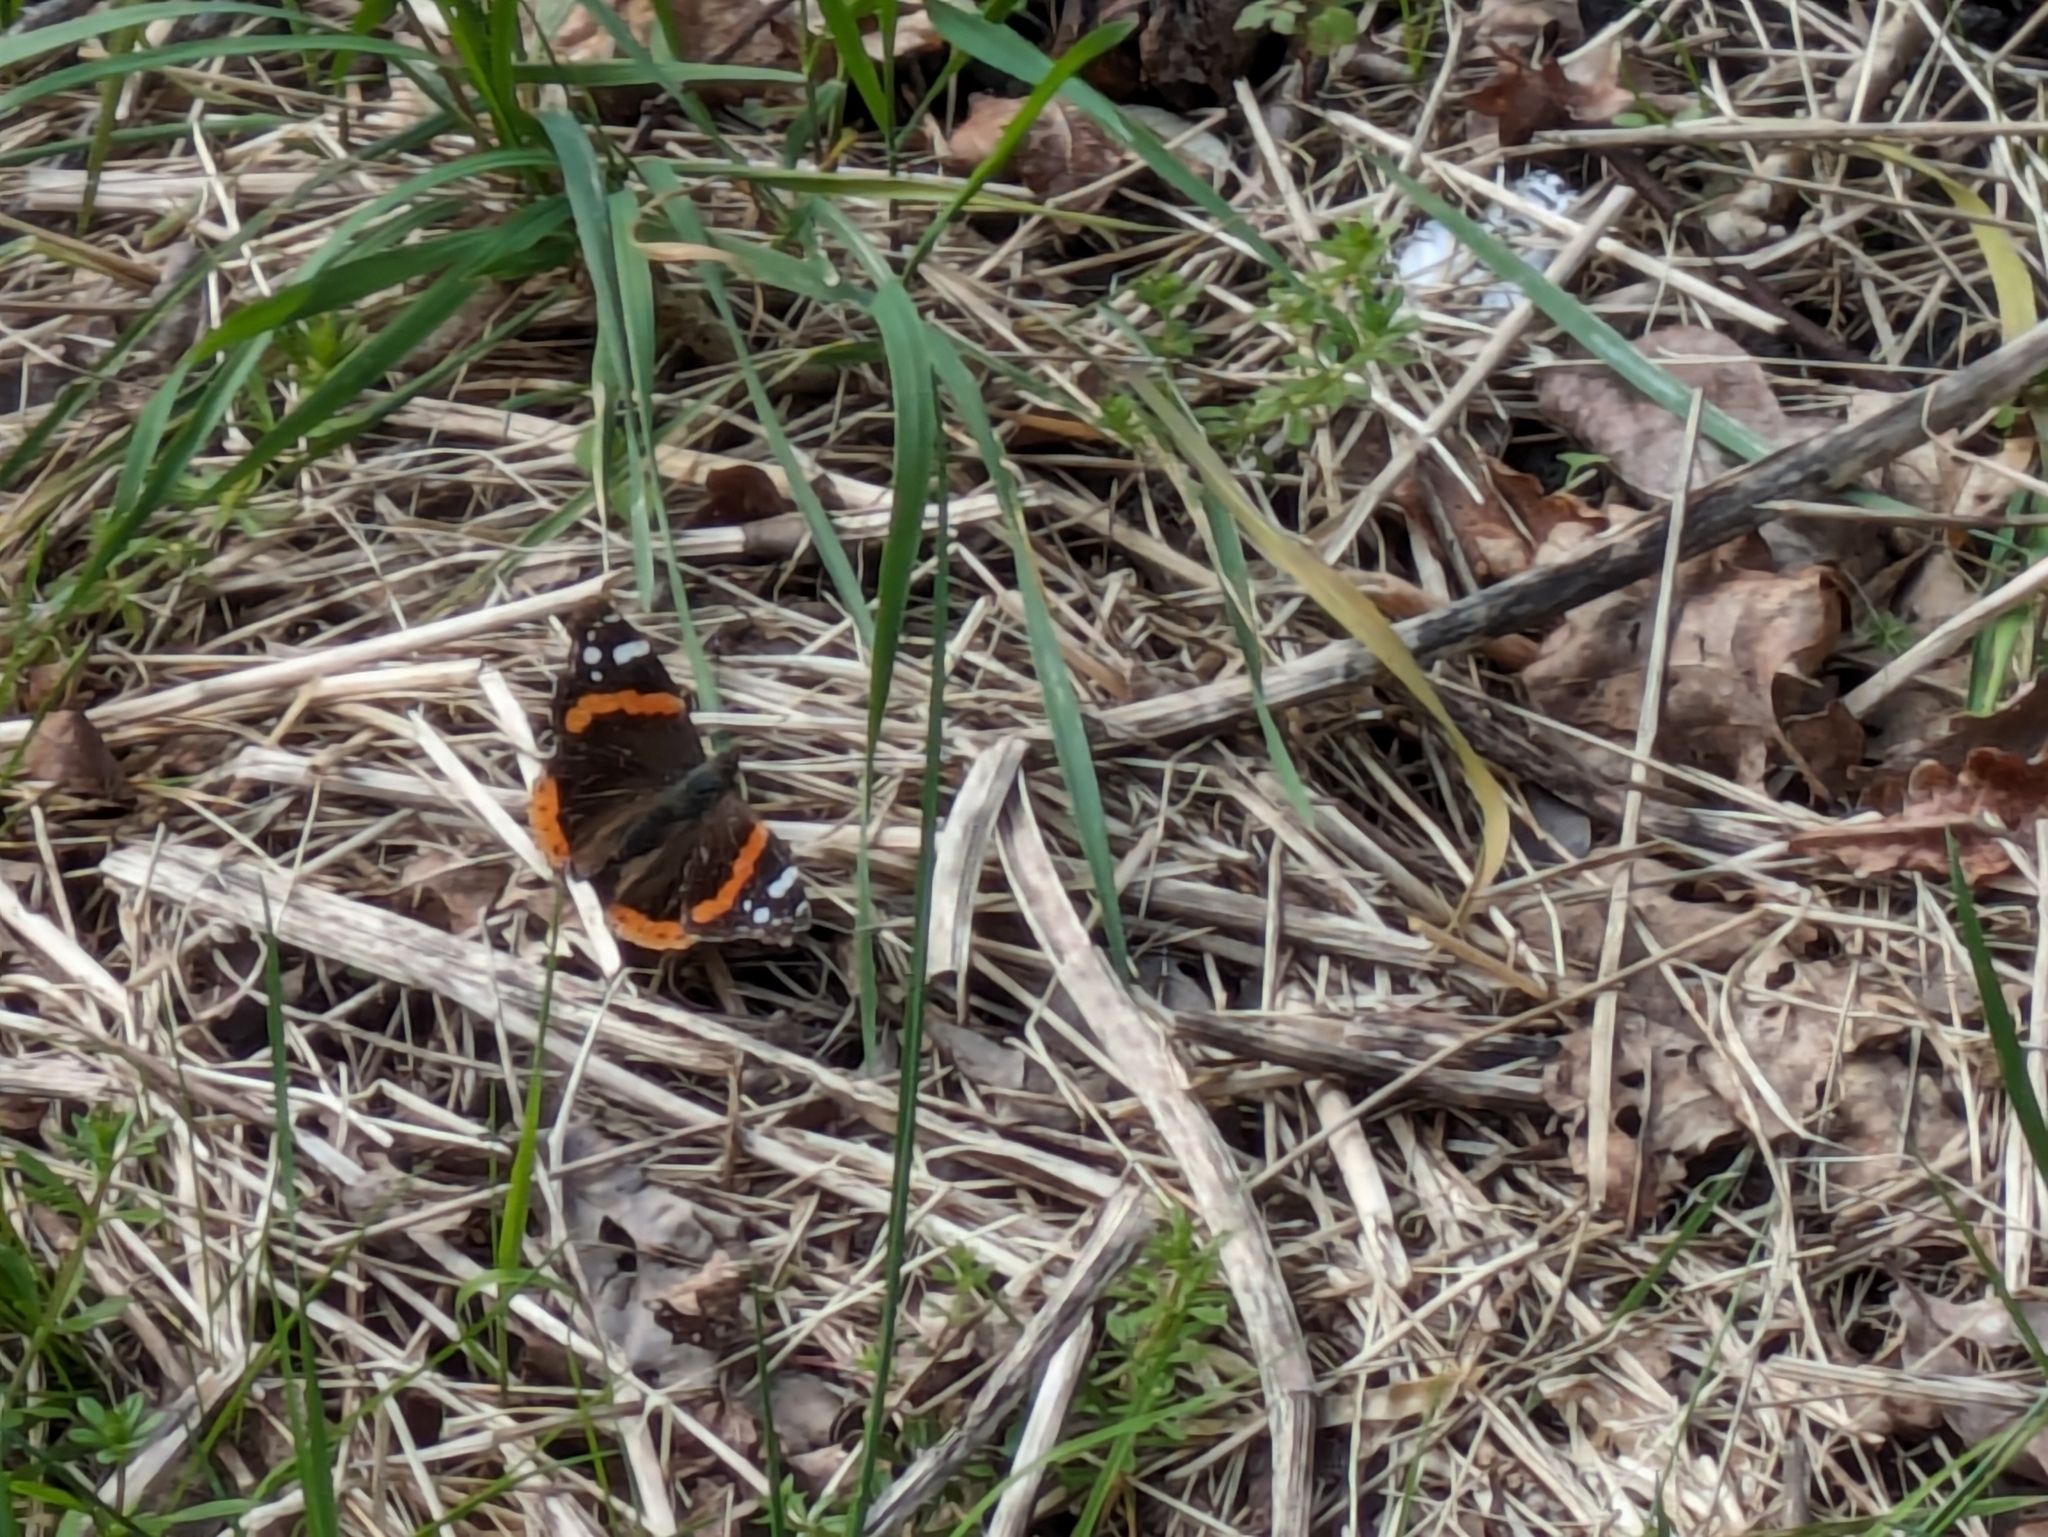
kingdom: Animalia
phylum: Arthropoda
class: Insecta
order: Lepidoptera
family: Nymphalidae
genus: Vanessa
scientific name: Vanessa atalanta
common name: Red admiral
